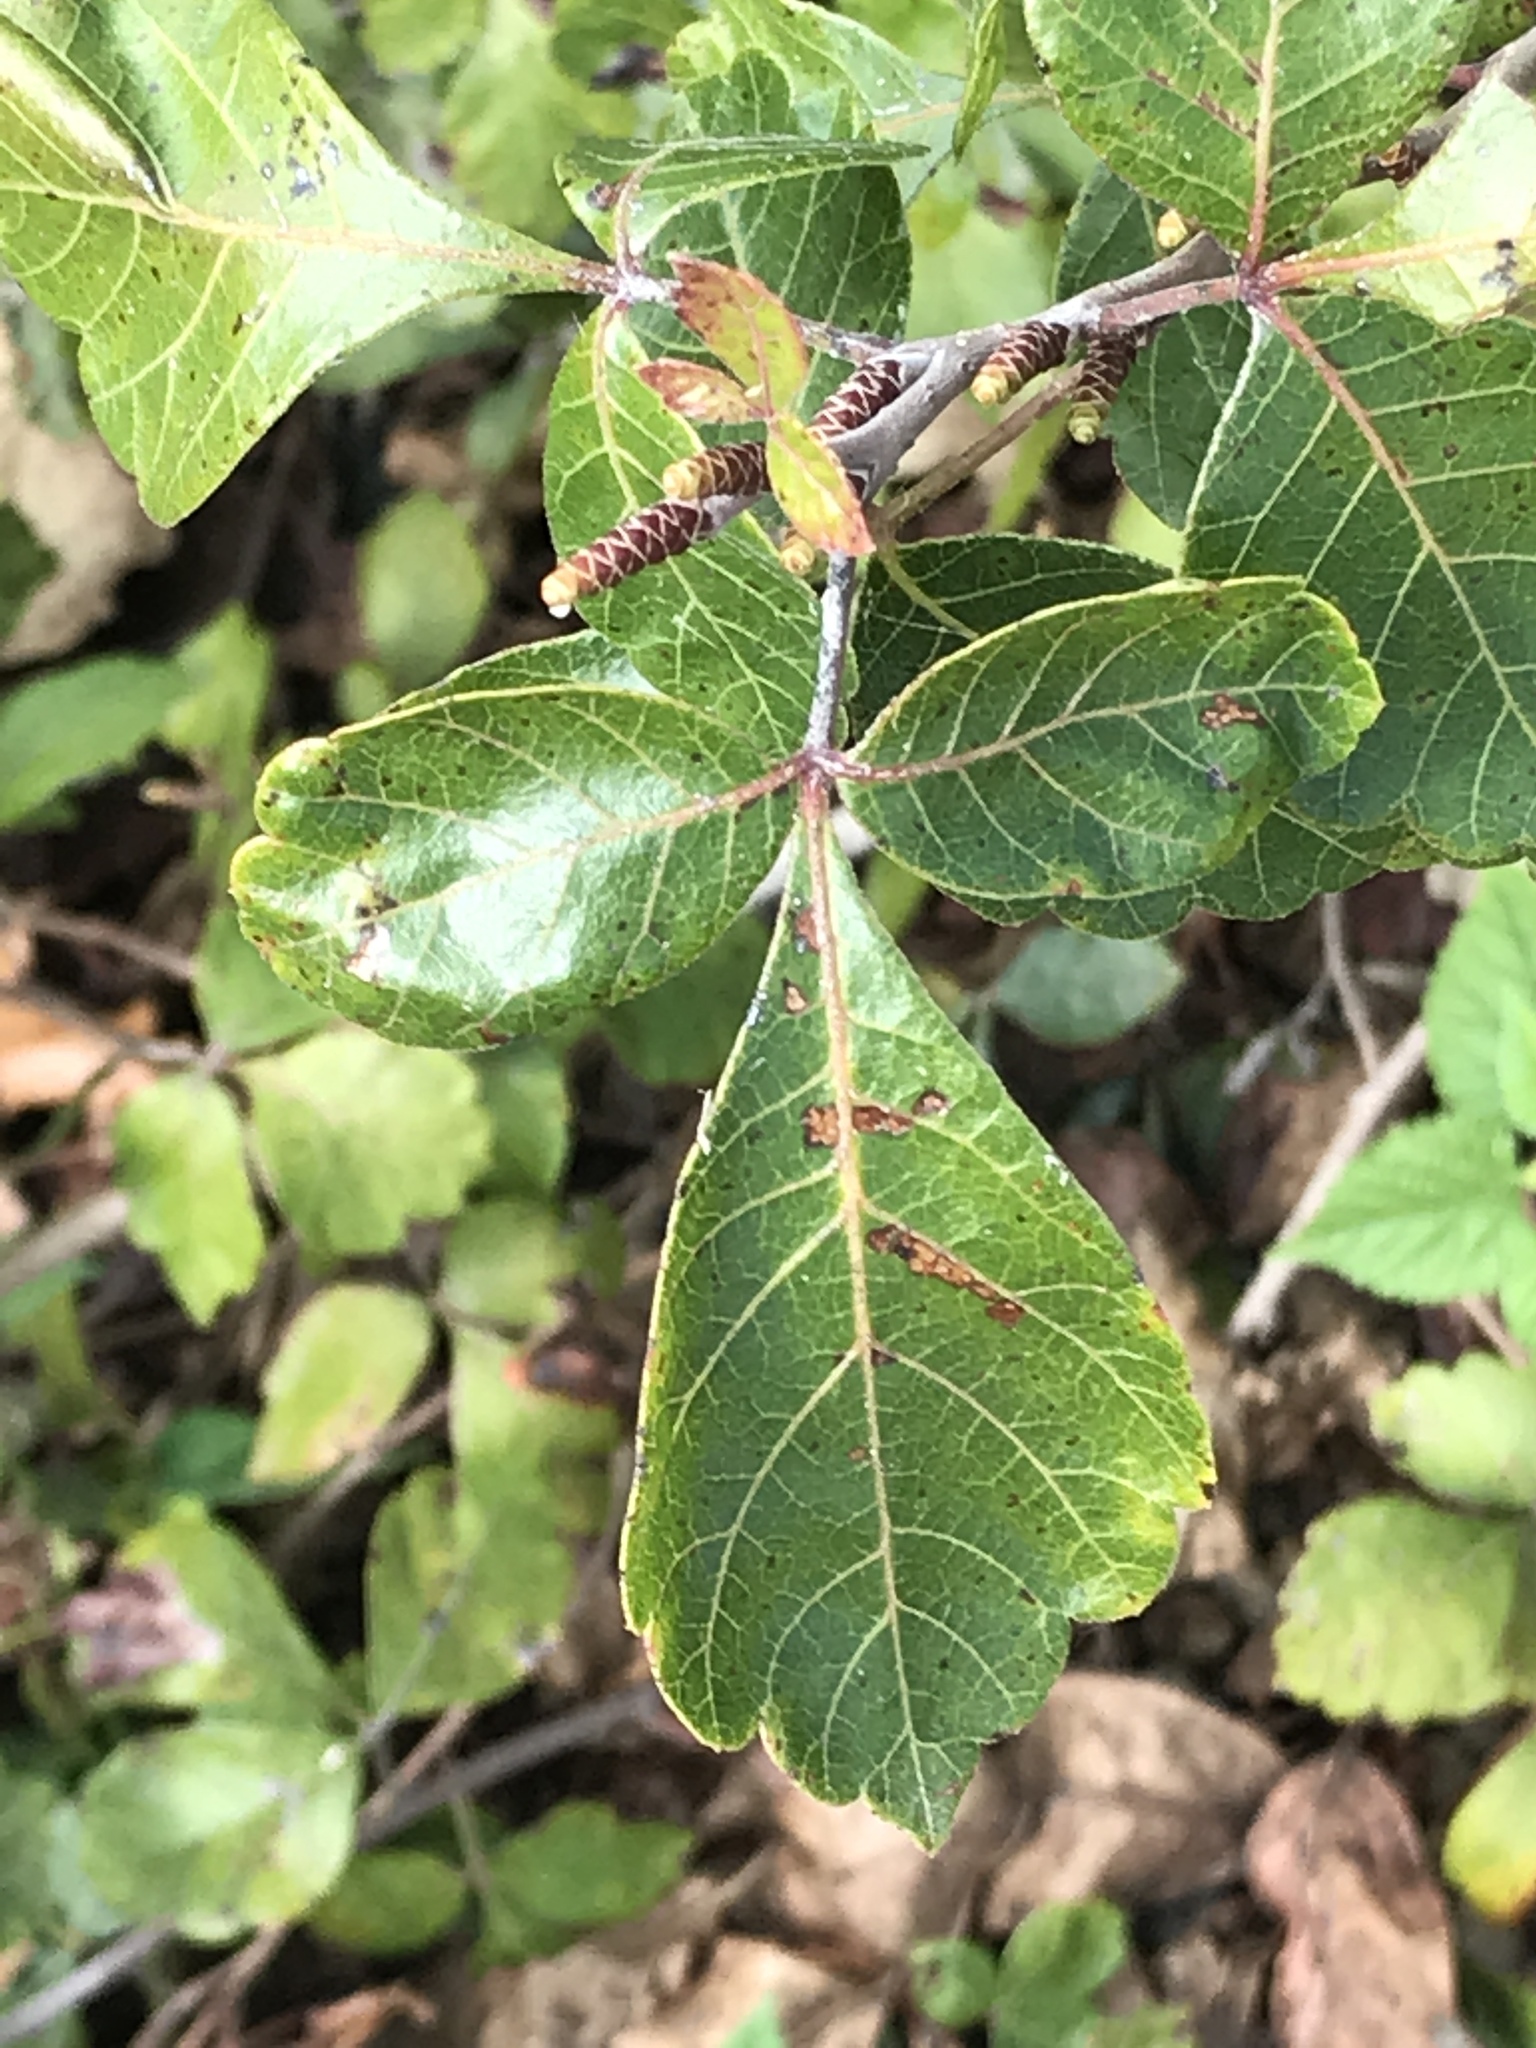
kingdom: Plantae
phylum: Tracheophyta
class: Magnoliopsida
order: Sapindales
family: Anacardiaceae
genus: Rhus
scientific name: Rhus aromatica
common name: Aromatic sumac
